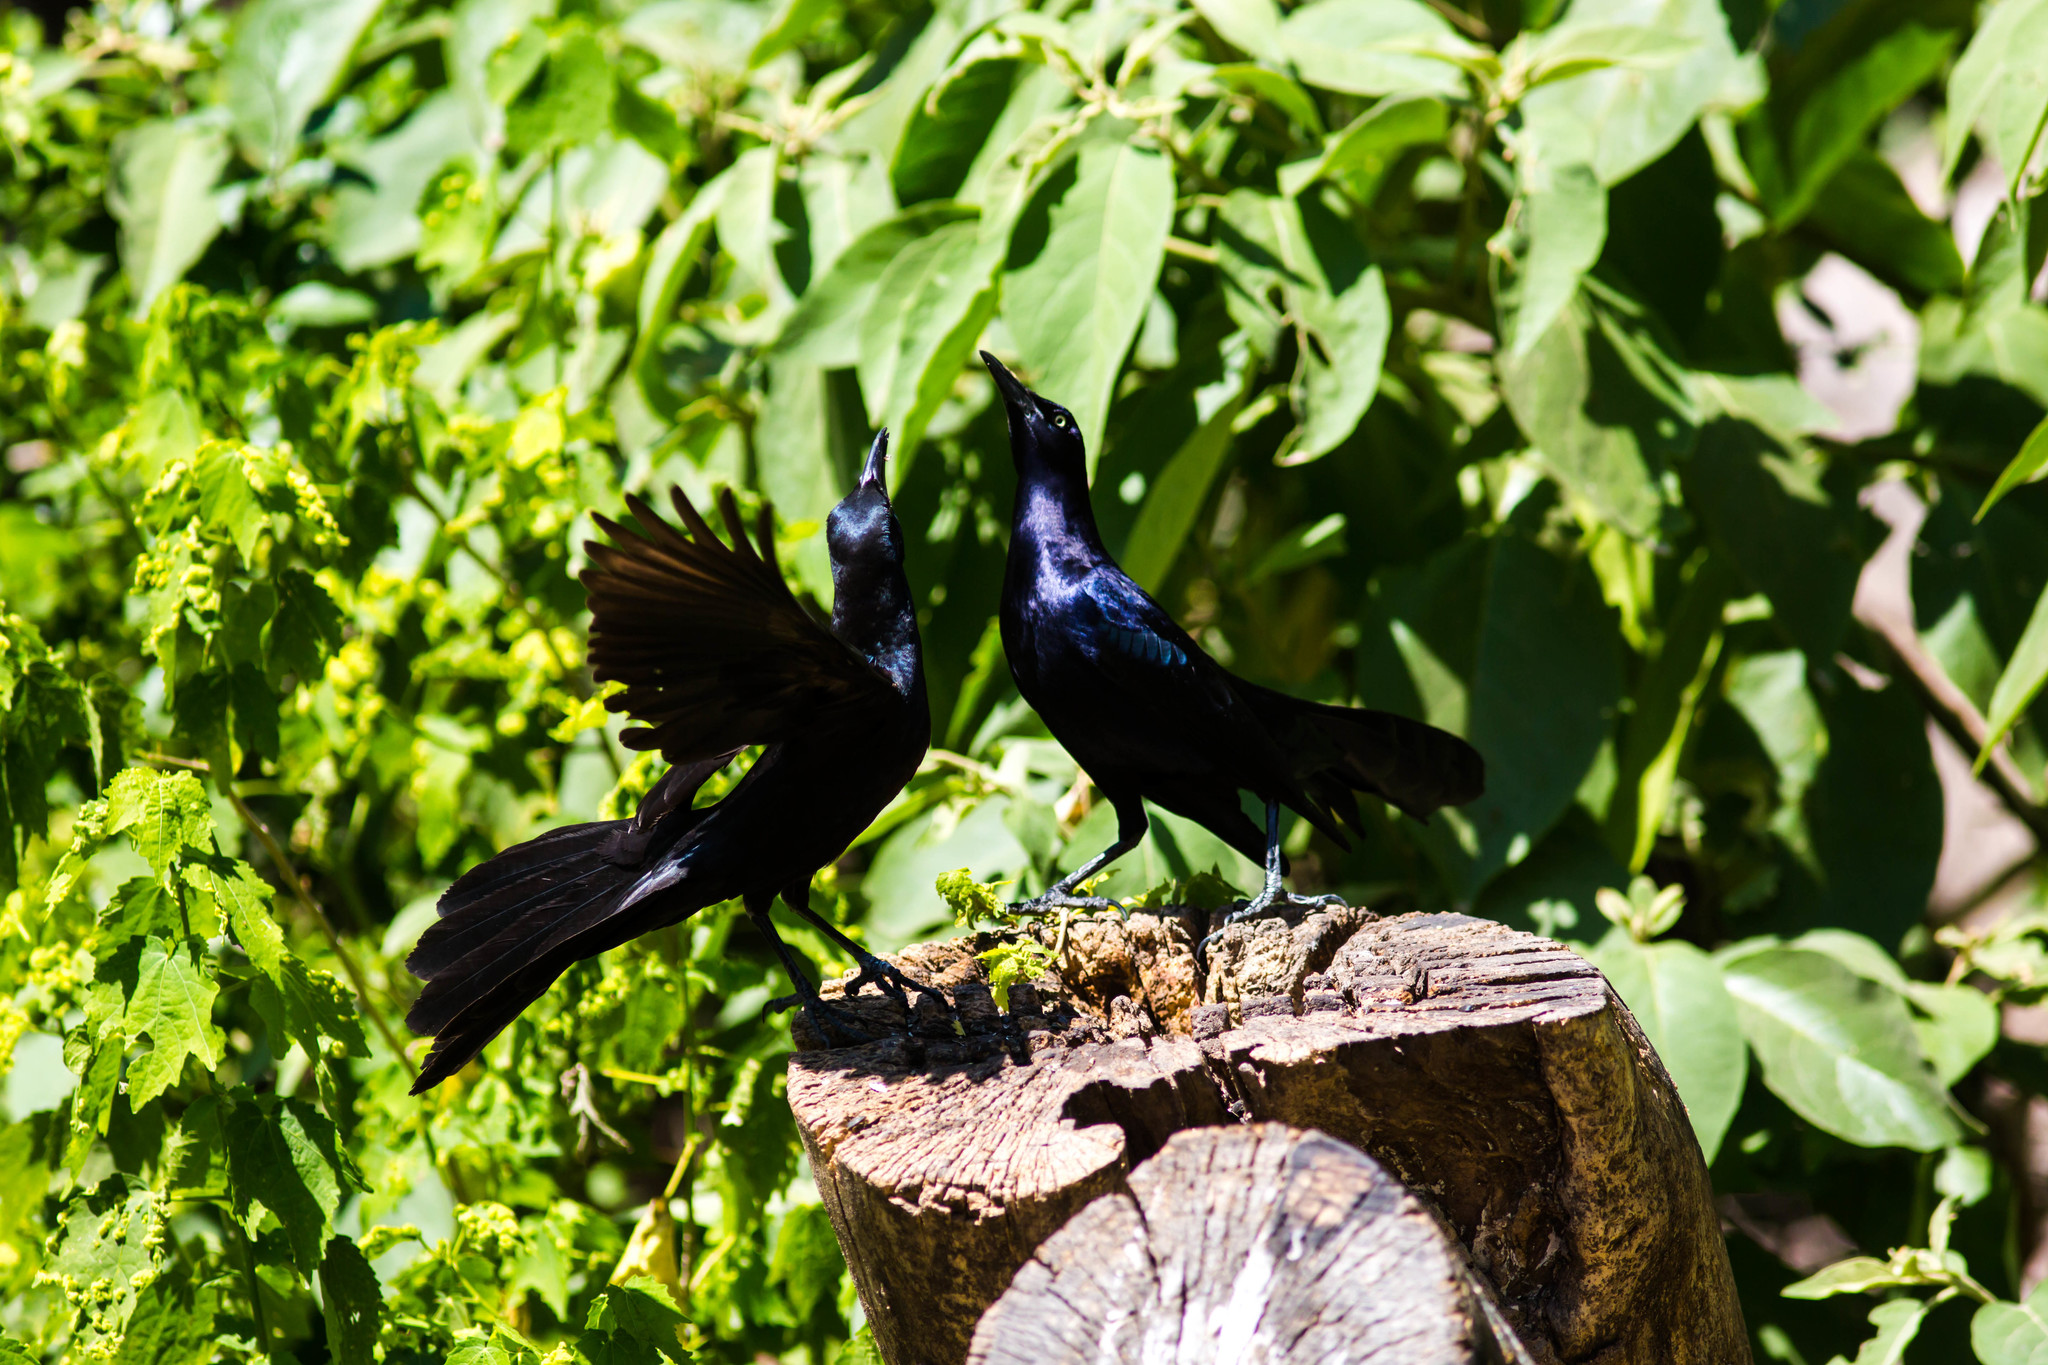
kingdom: Animalia
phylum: Chordata
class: Aves
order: Passeriformes
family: Icteridae
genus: Quiscalus
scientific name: Quiscalus mexicanus
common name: Great-tailed grackle
